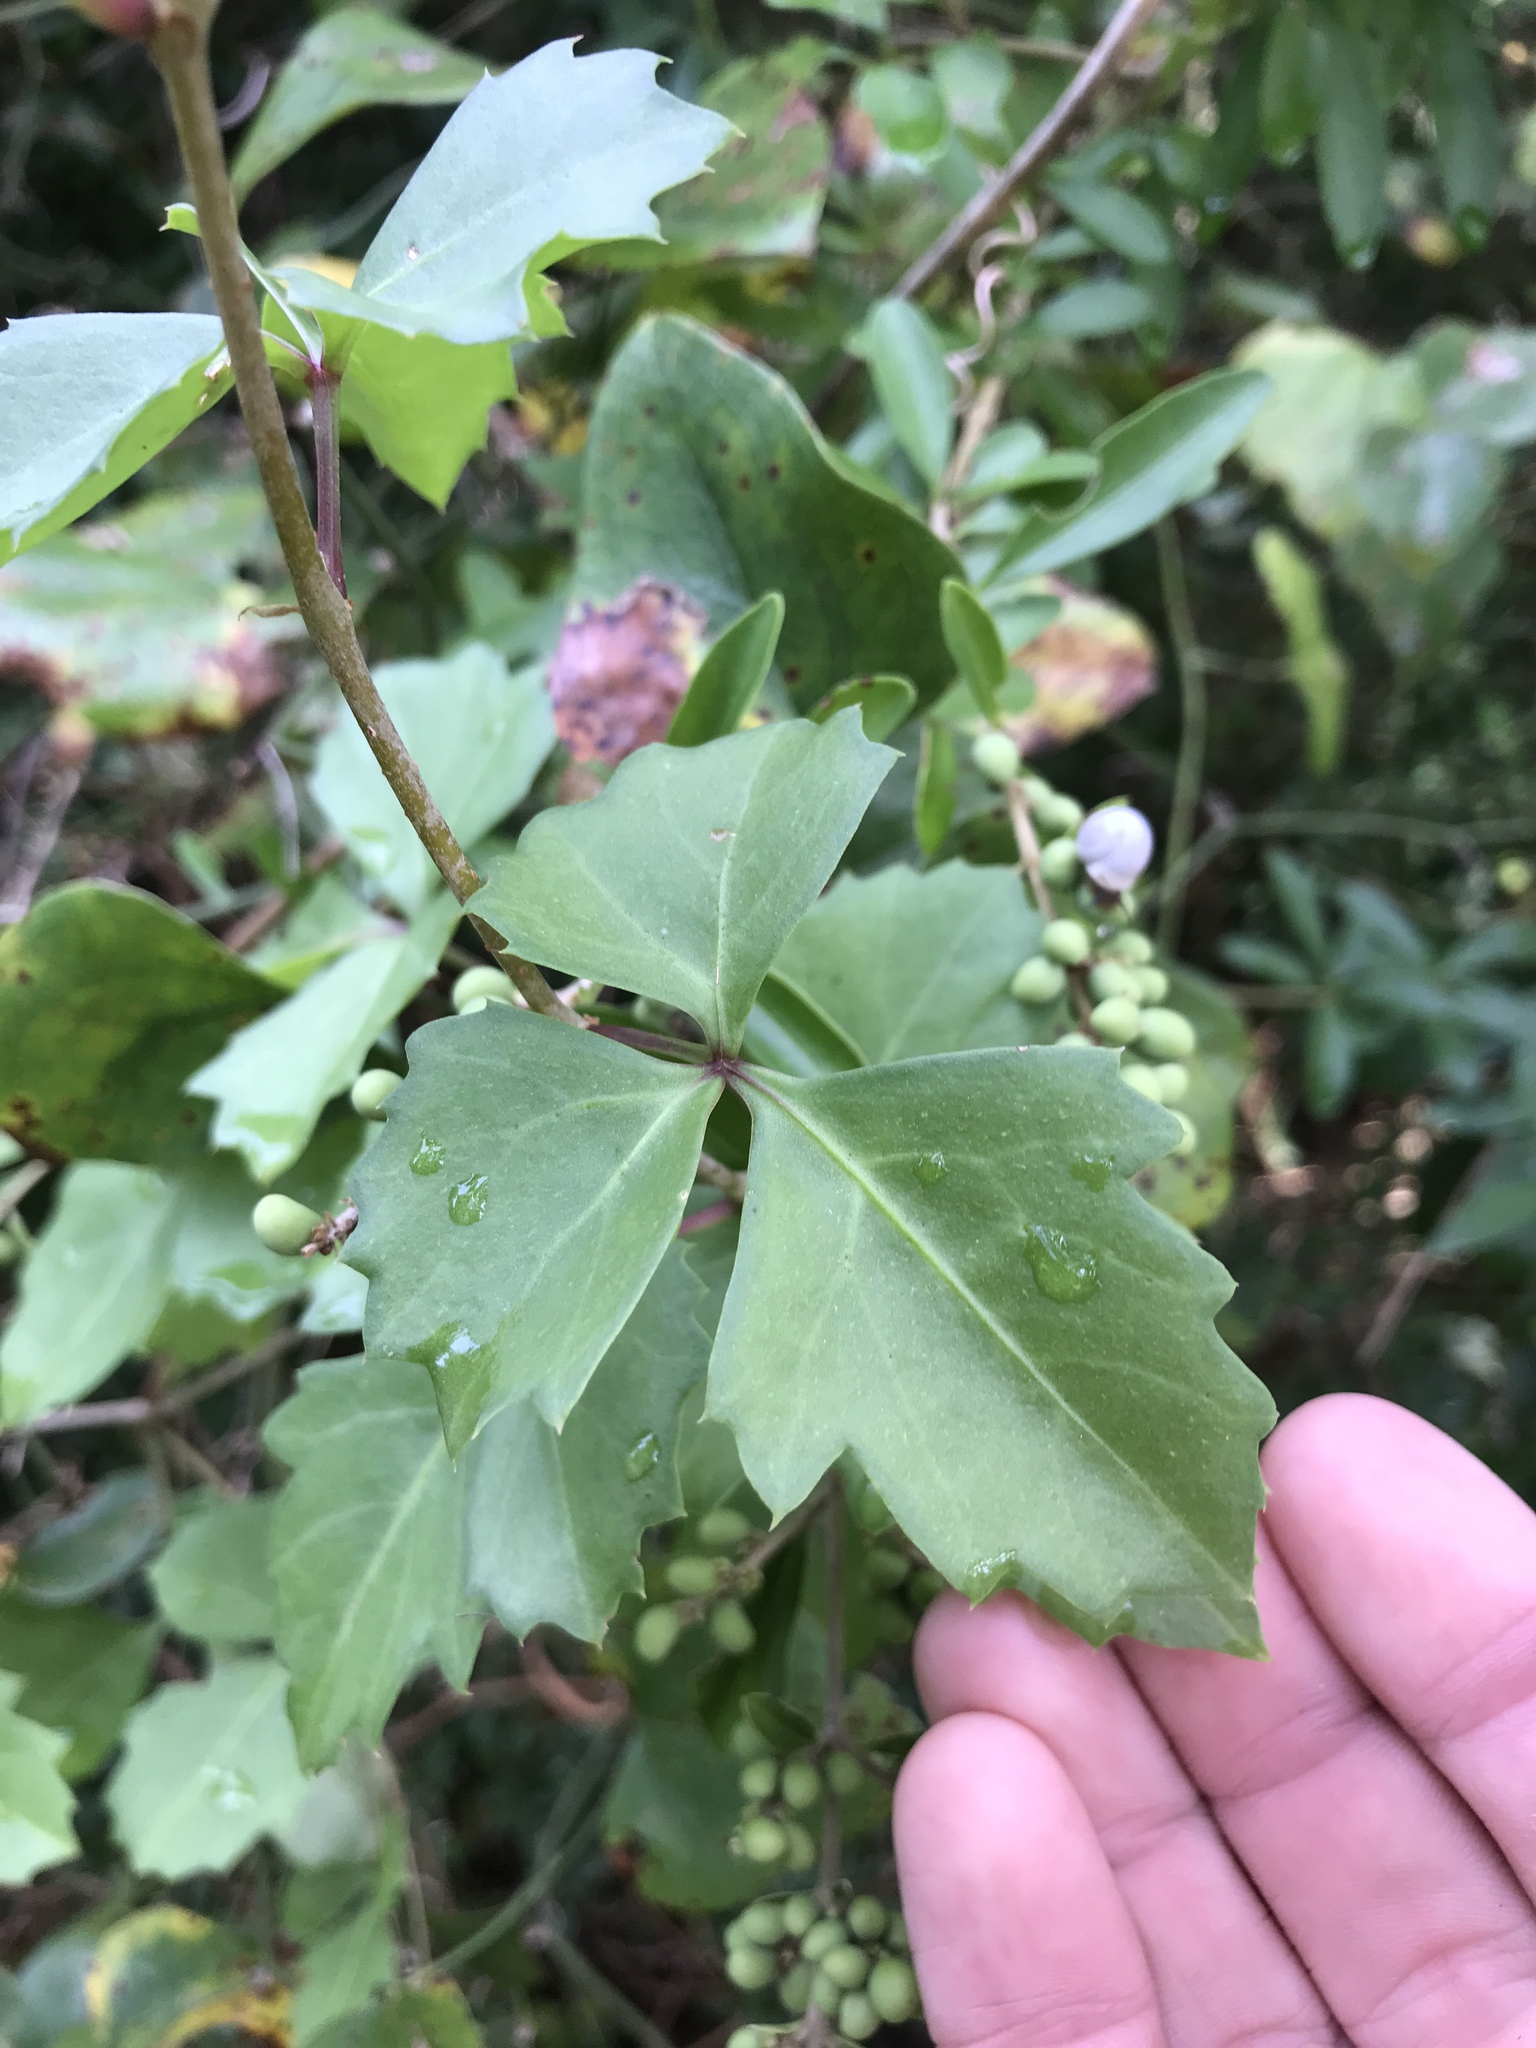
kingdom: Plantae
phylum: Tracheophyta
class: Magnoliopsida
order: Vitales
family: Vitaceae
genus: Cissus
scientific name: Cissus trifoliata
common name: Vine-sorrel
